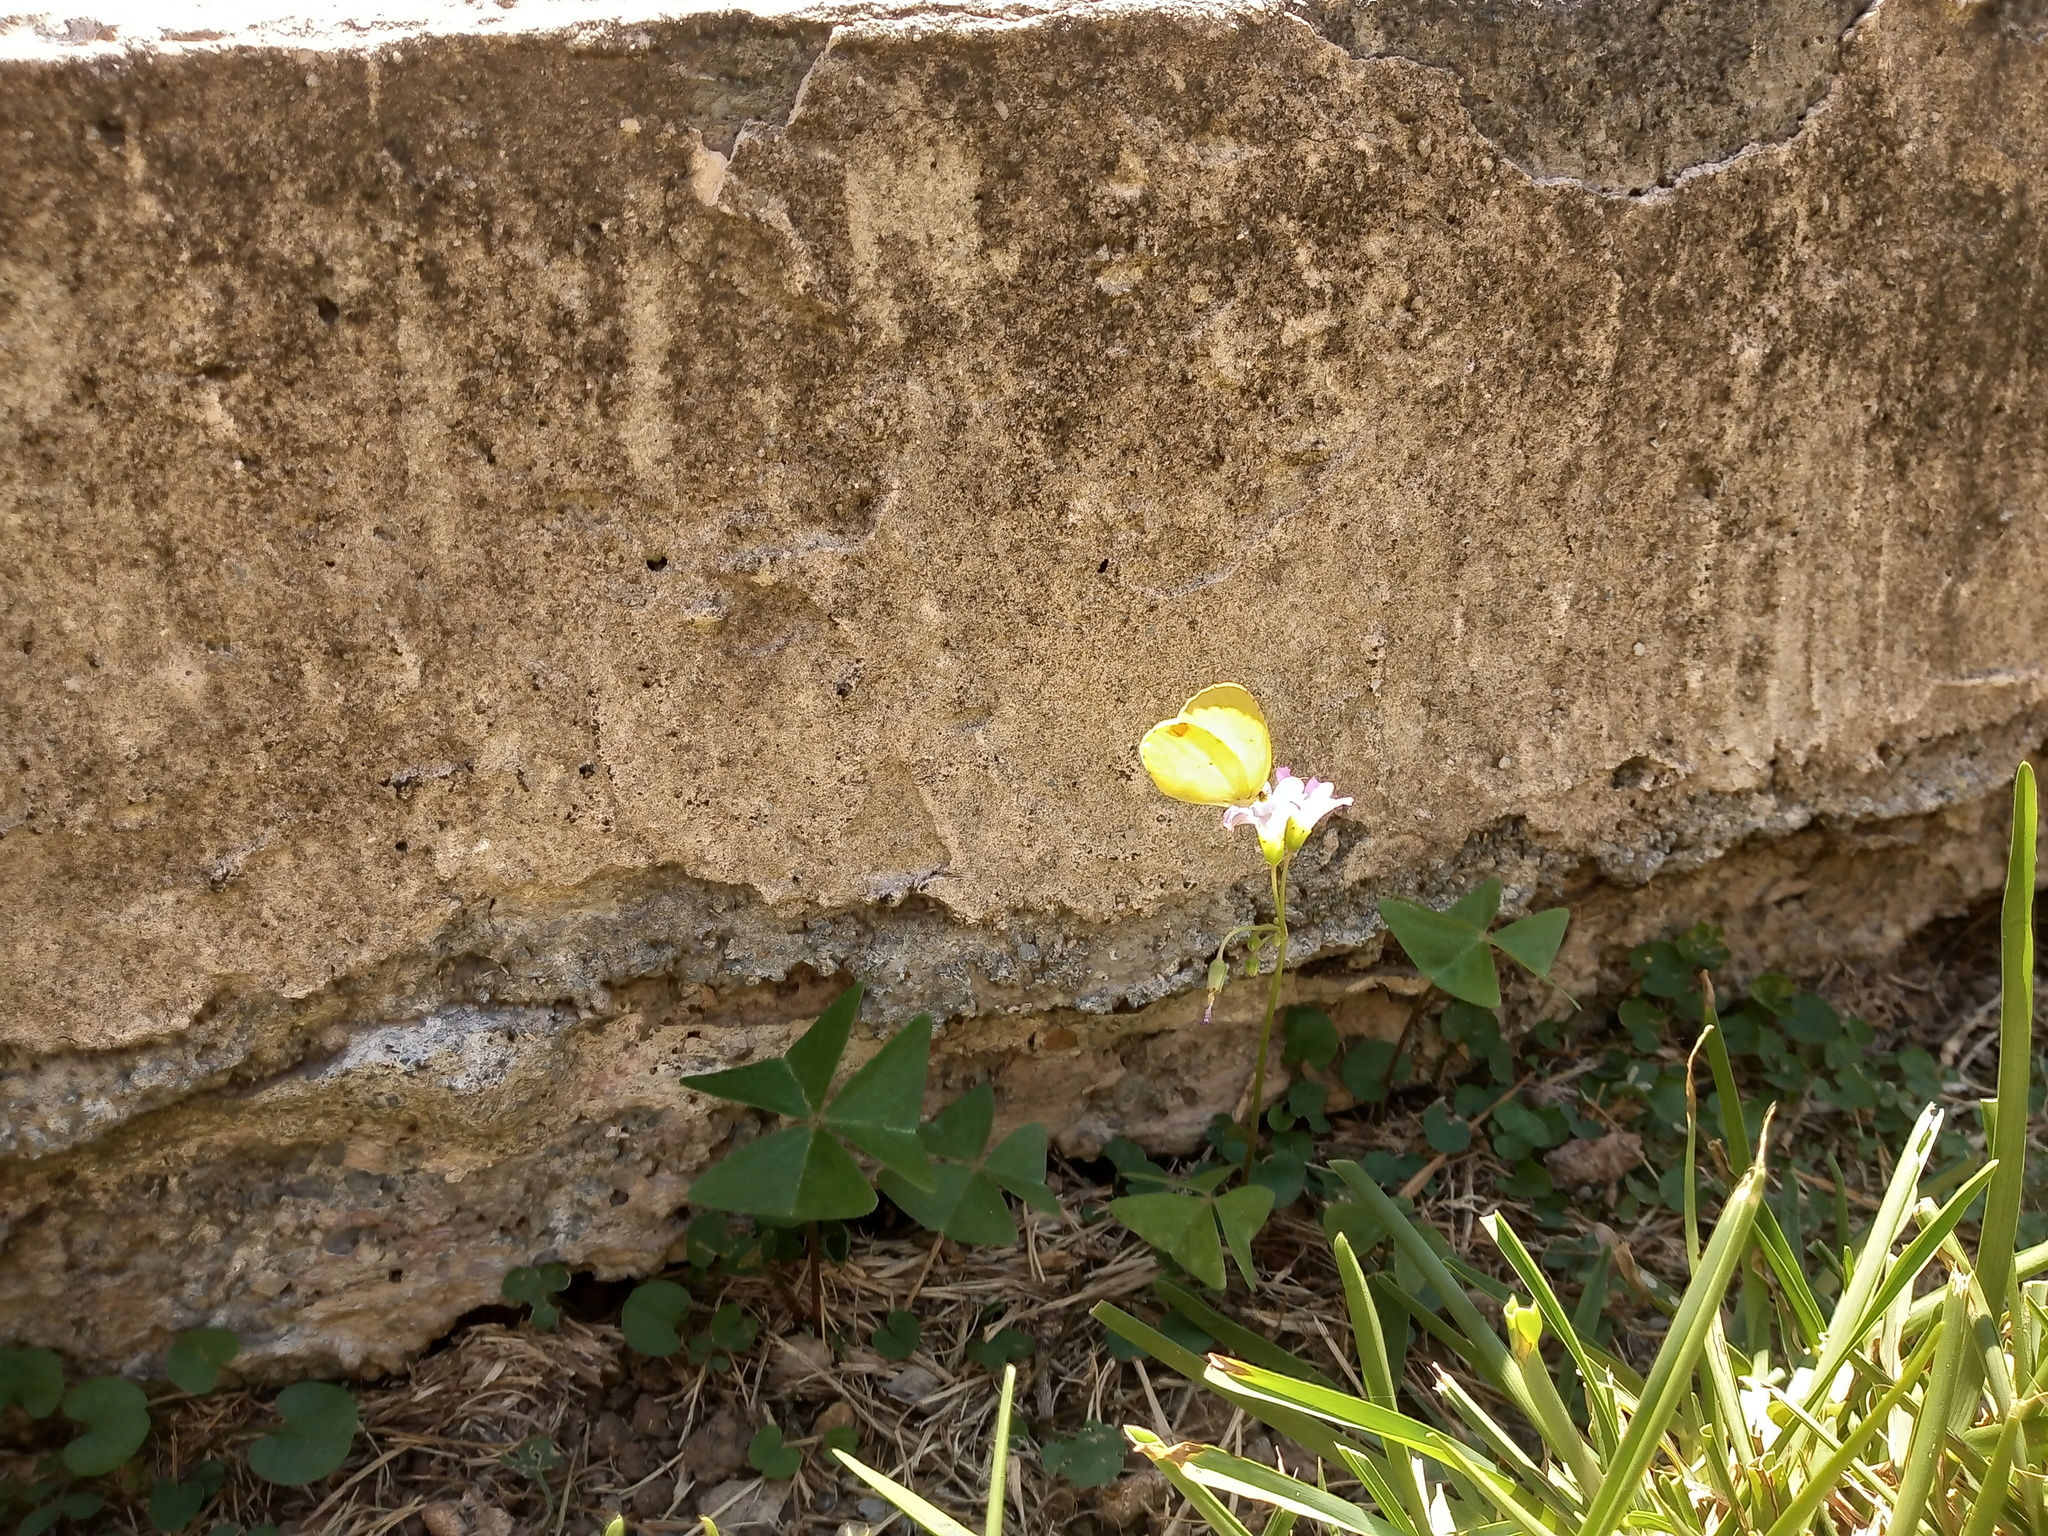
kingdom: Animalia
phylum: Arthropoda
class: Insecta
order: Lepidoptera
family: Pieridae
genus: Pyrisitia
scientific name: Pyrisitia lisa
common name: Little yellow
